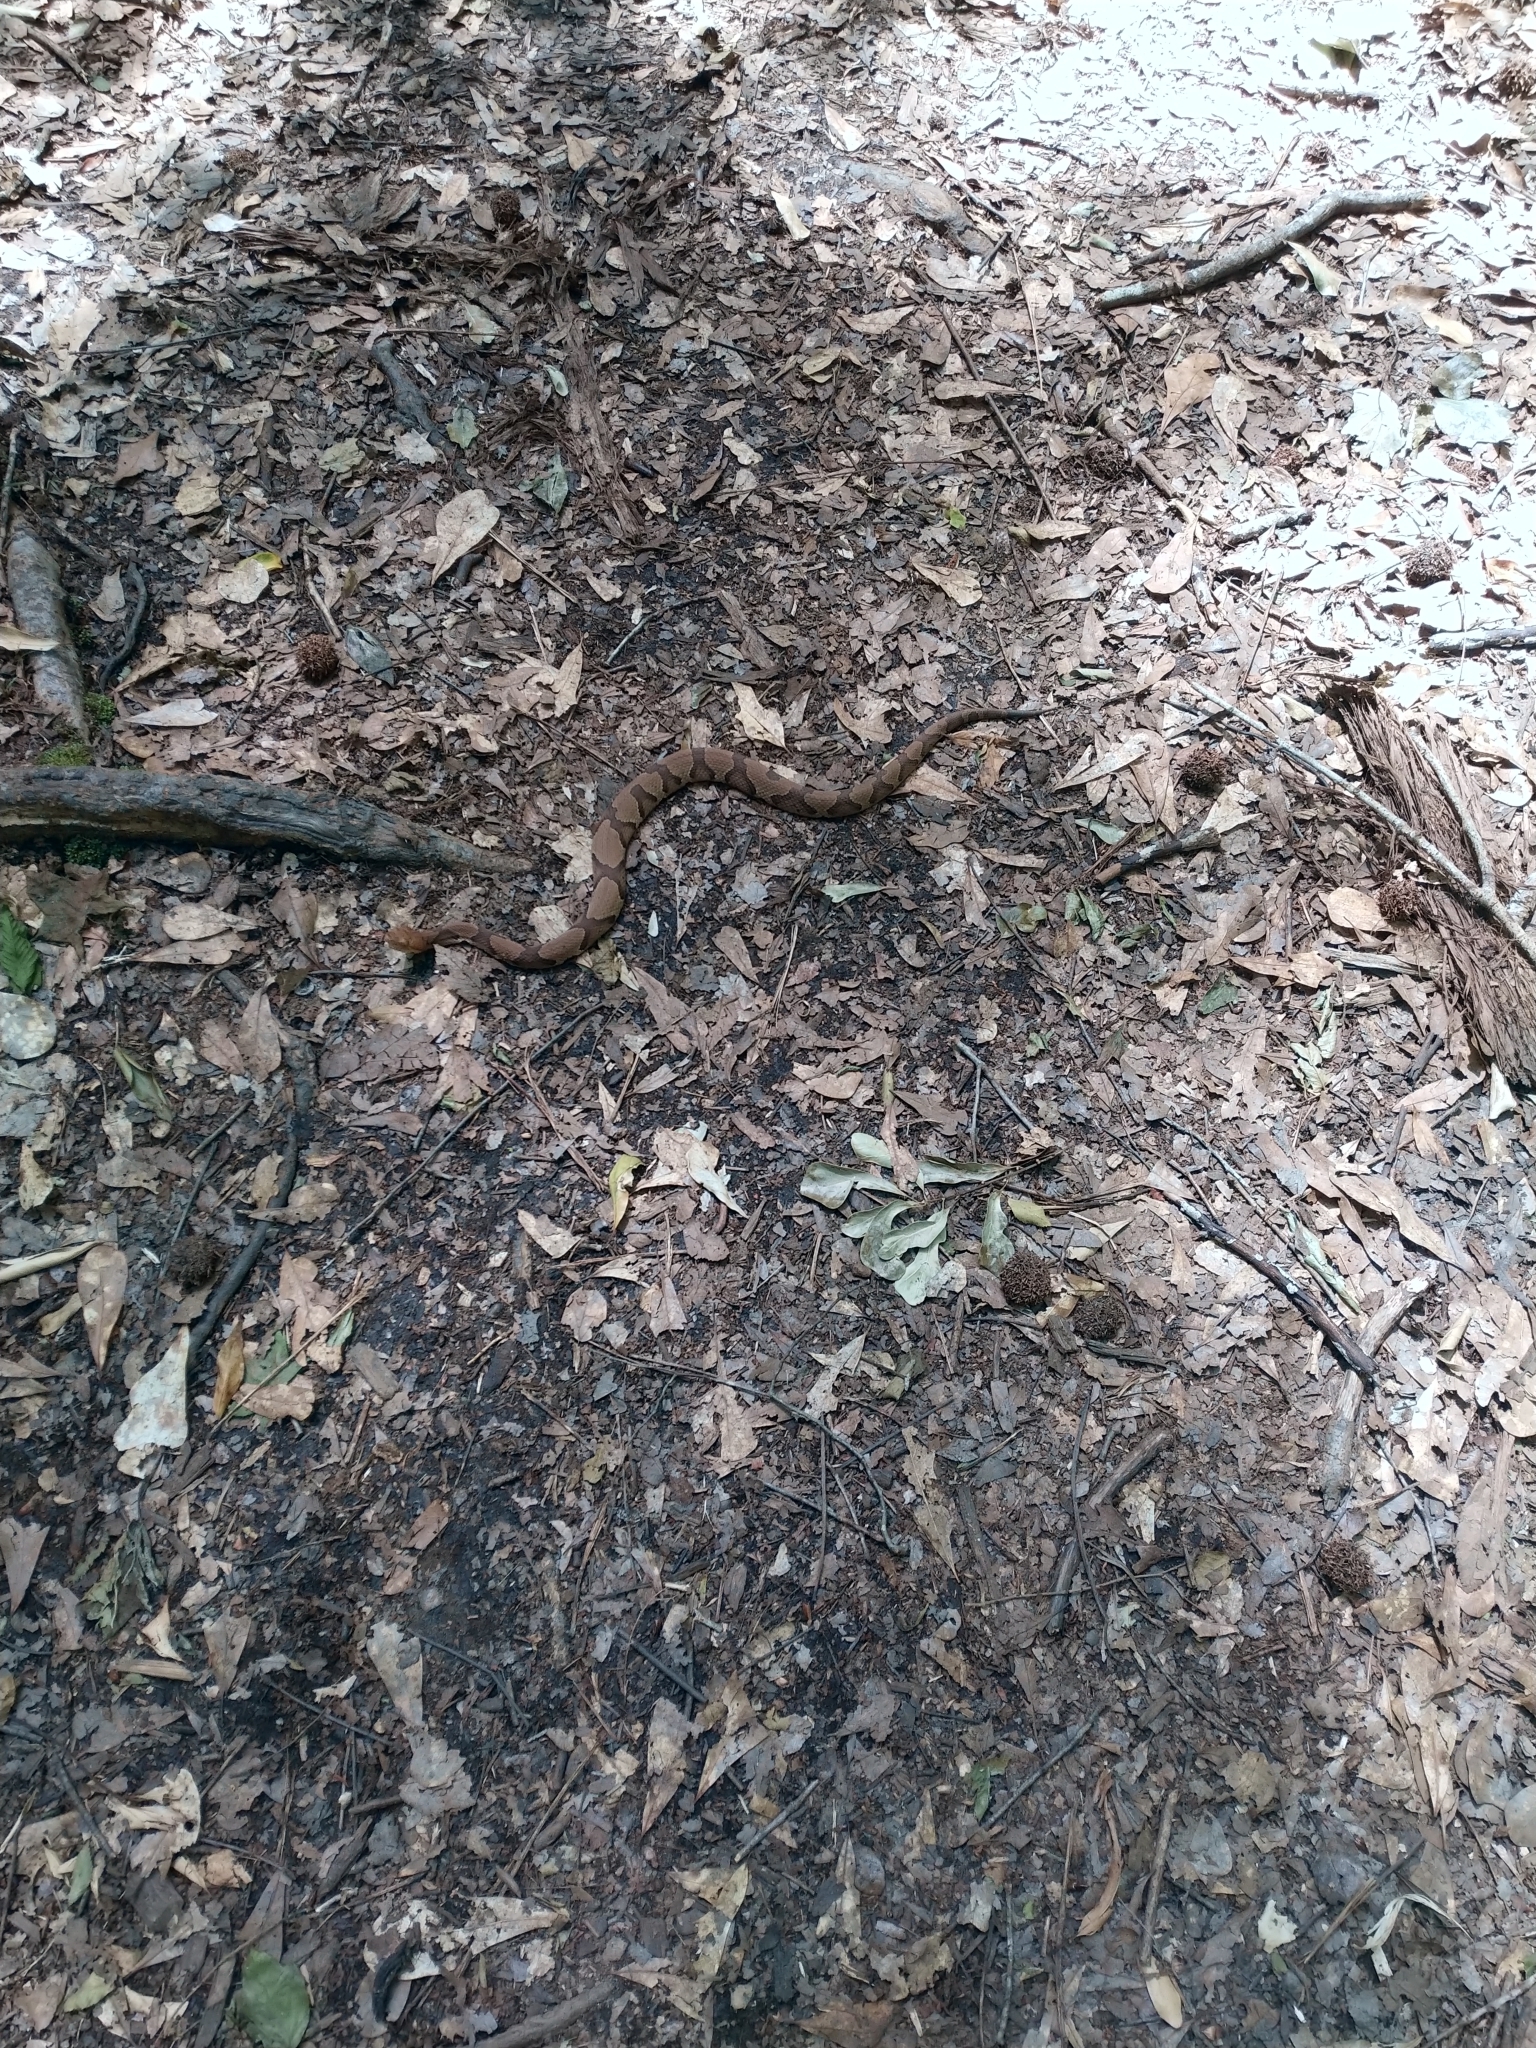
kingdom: Animalia
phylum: Chordata
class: Squamata
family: Viperidae
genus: Agkistrodon
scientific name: Agkistrodon contortrix
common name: Northern copperhead
